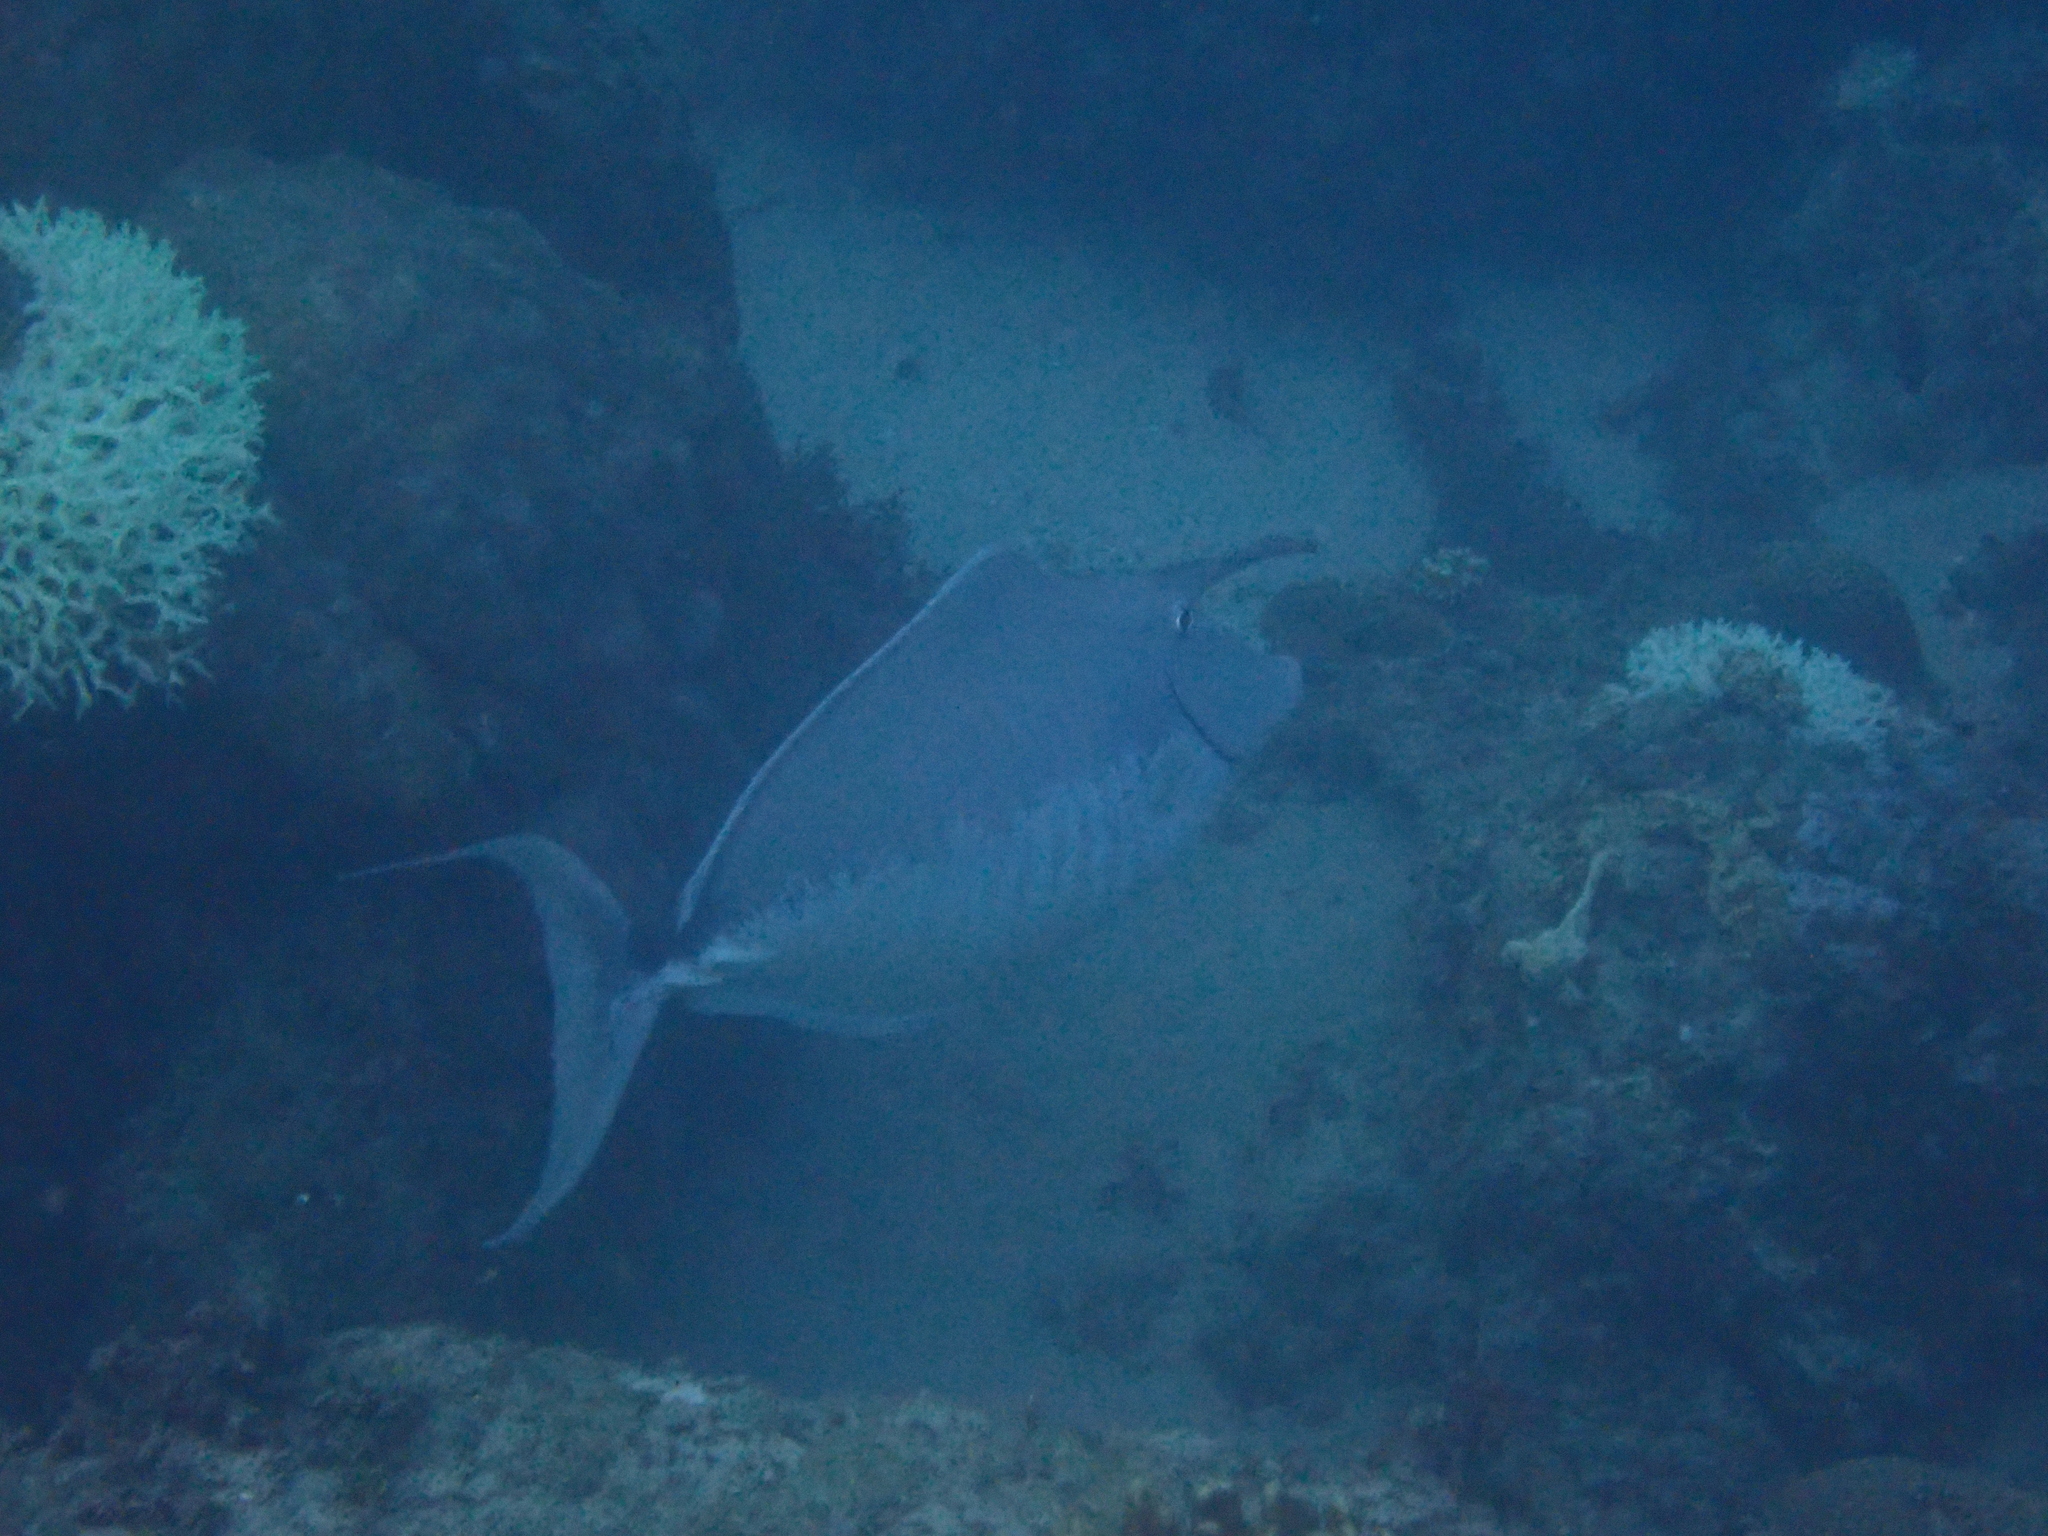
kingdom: Animalia
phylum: Chordata
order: Perciformes
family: Acanthuridae
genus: Naso
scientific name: Naso brachycentron
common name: Humpback unicornfish
